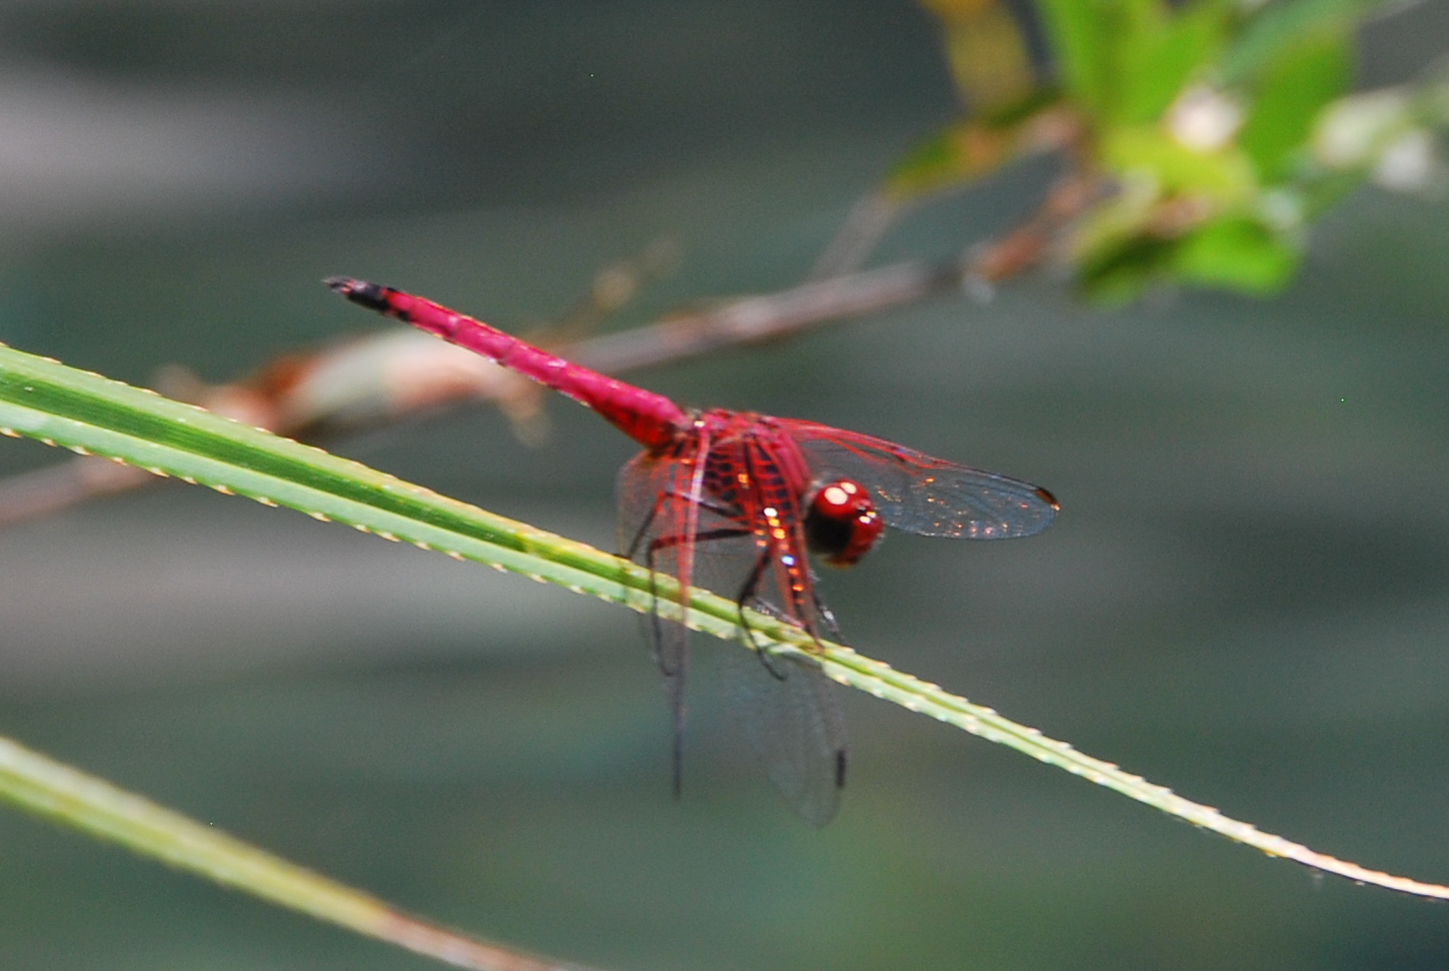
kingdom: Animalia
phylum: Arthropoda
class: Insecta
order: Odonata
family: Libellulidae
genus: Trithemis
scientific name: Trithemis selika
